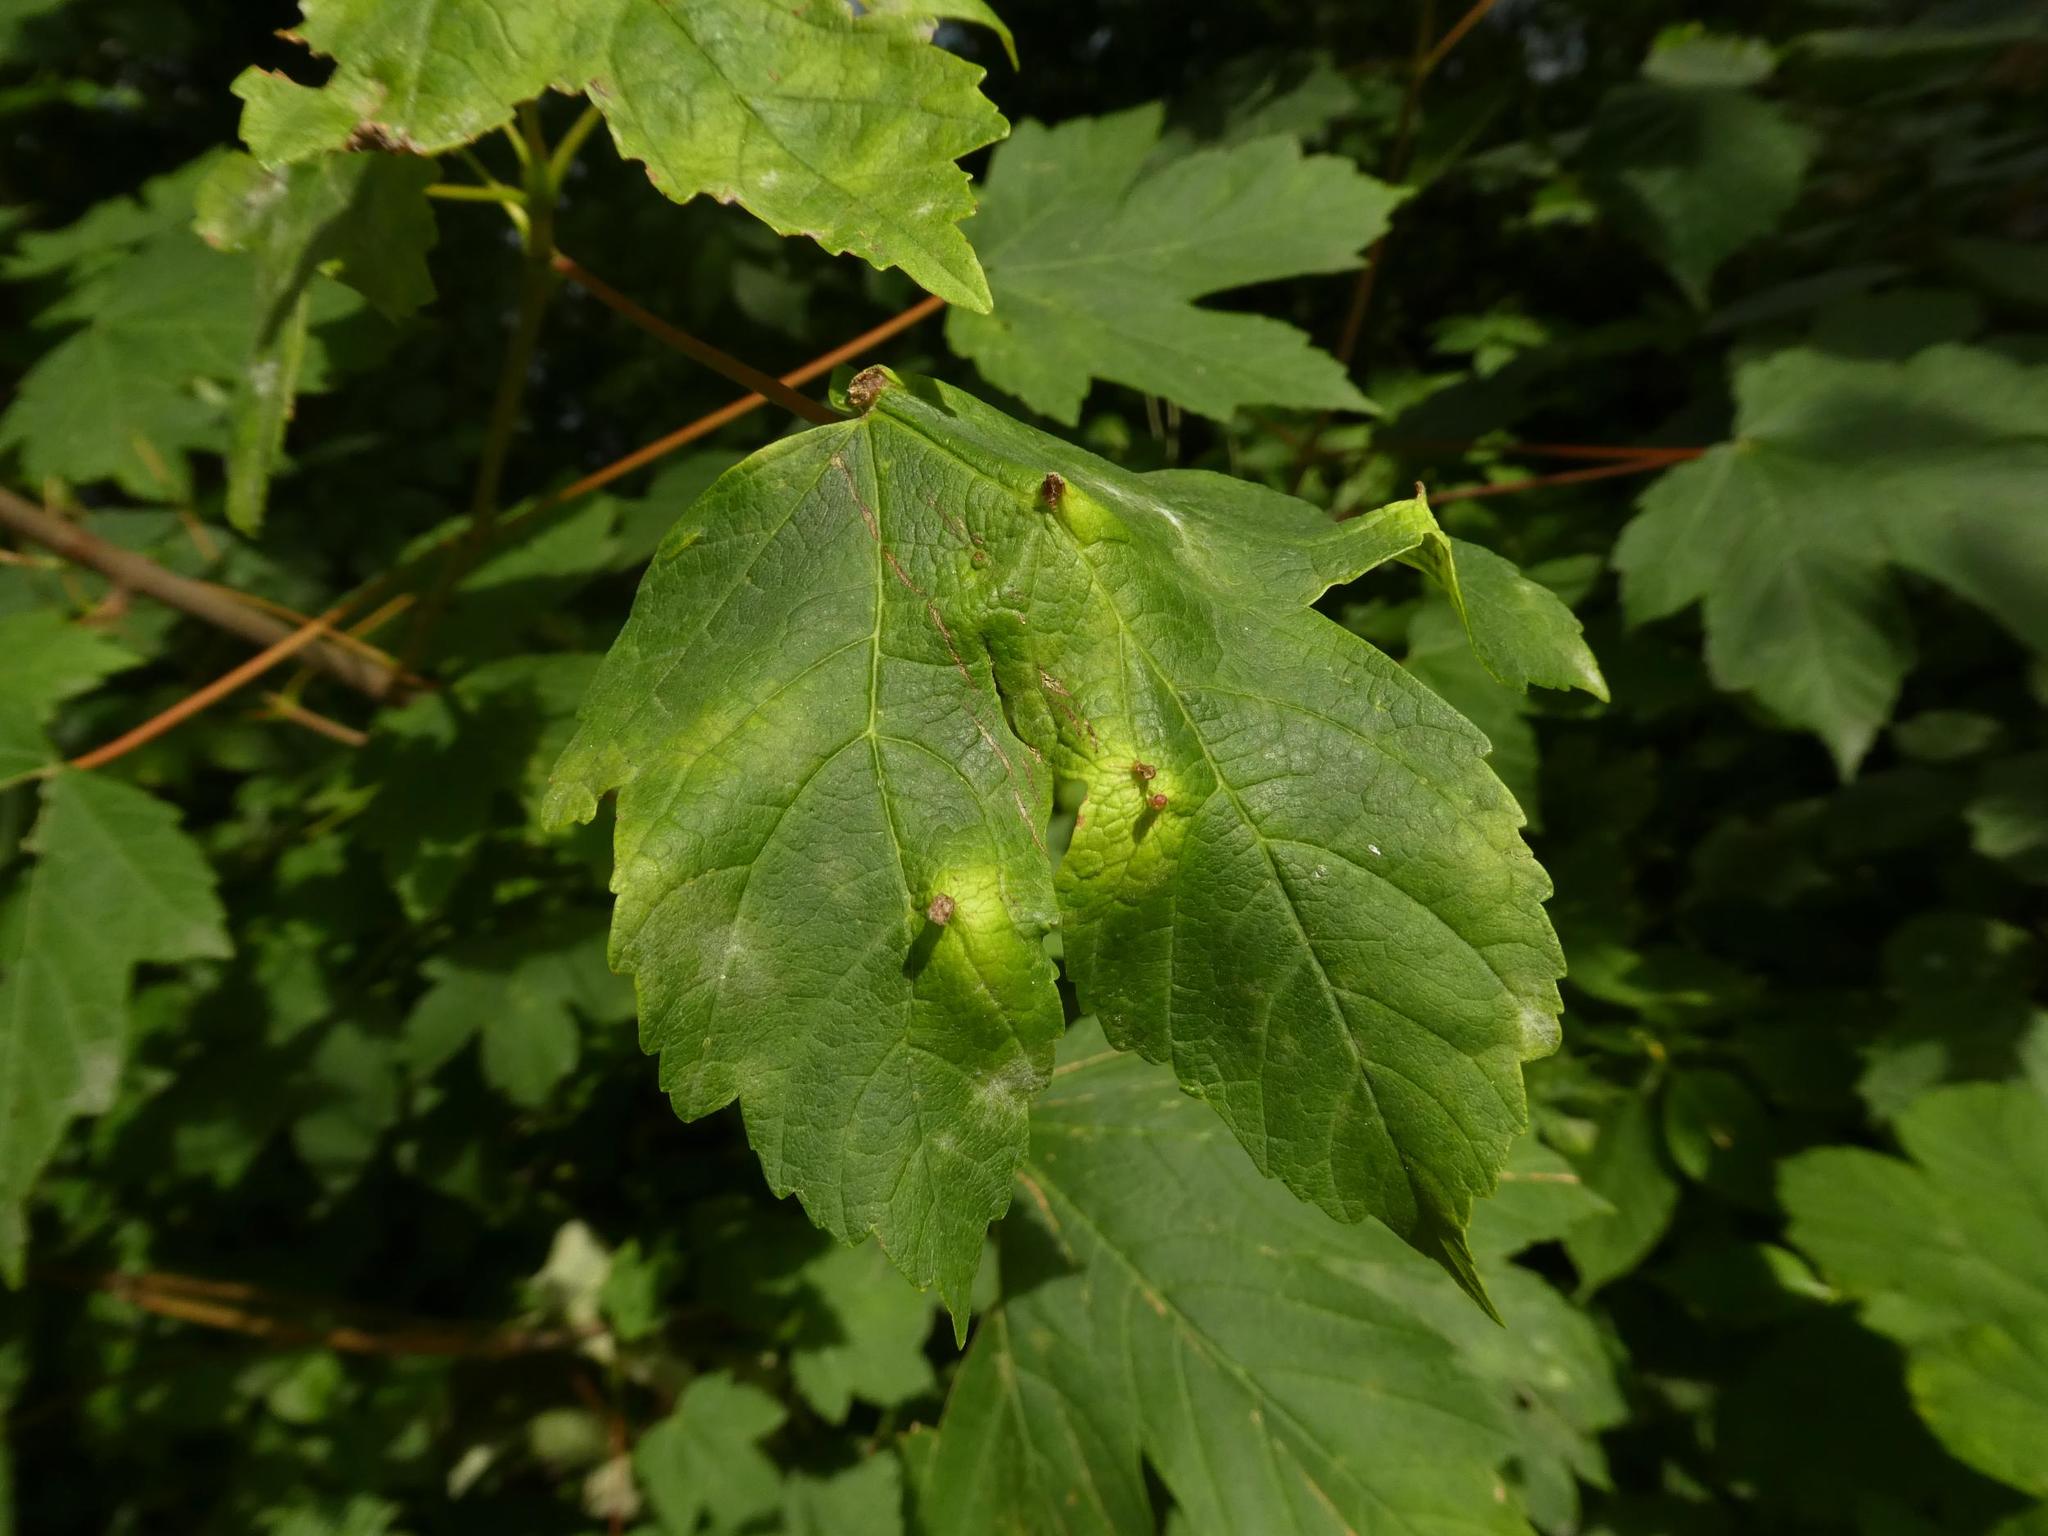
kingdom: Plantae
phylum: Tracheophyta
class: Magnoliopsida
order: Sapindales
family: Sapindaceae
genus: Acer
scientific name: Acer pseudoplatanus
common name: Sycamore
